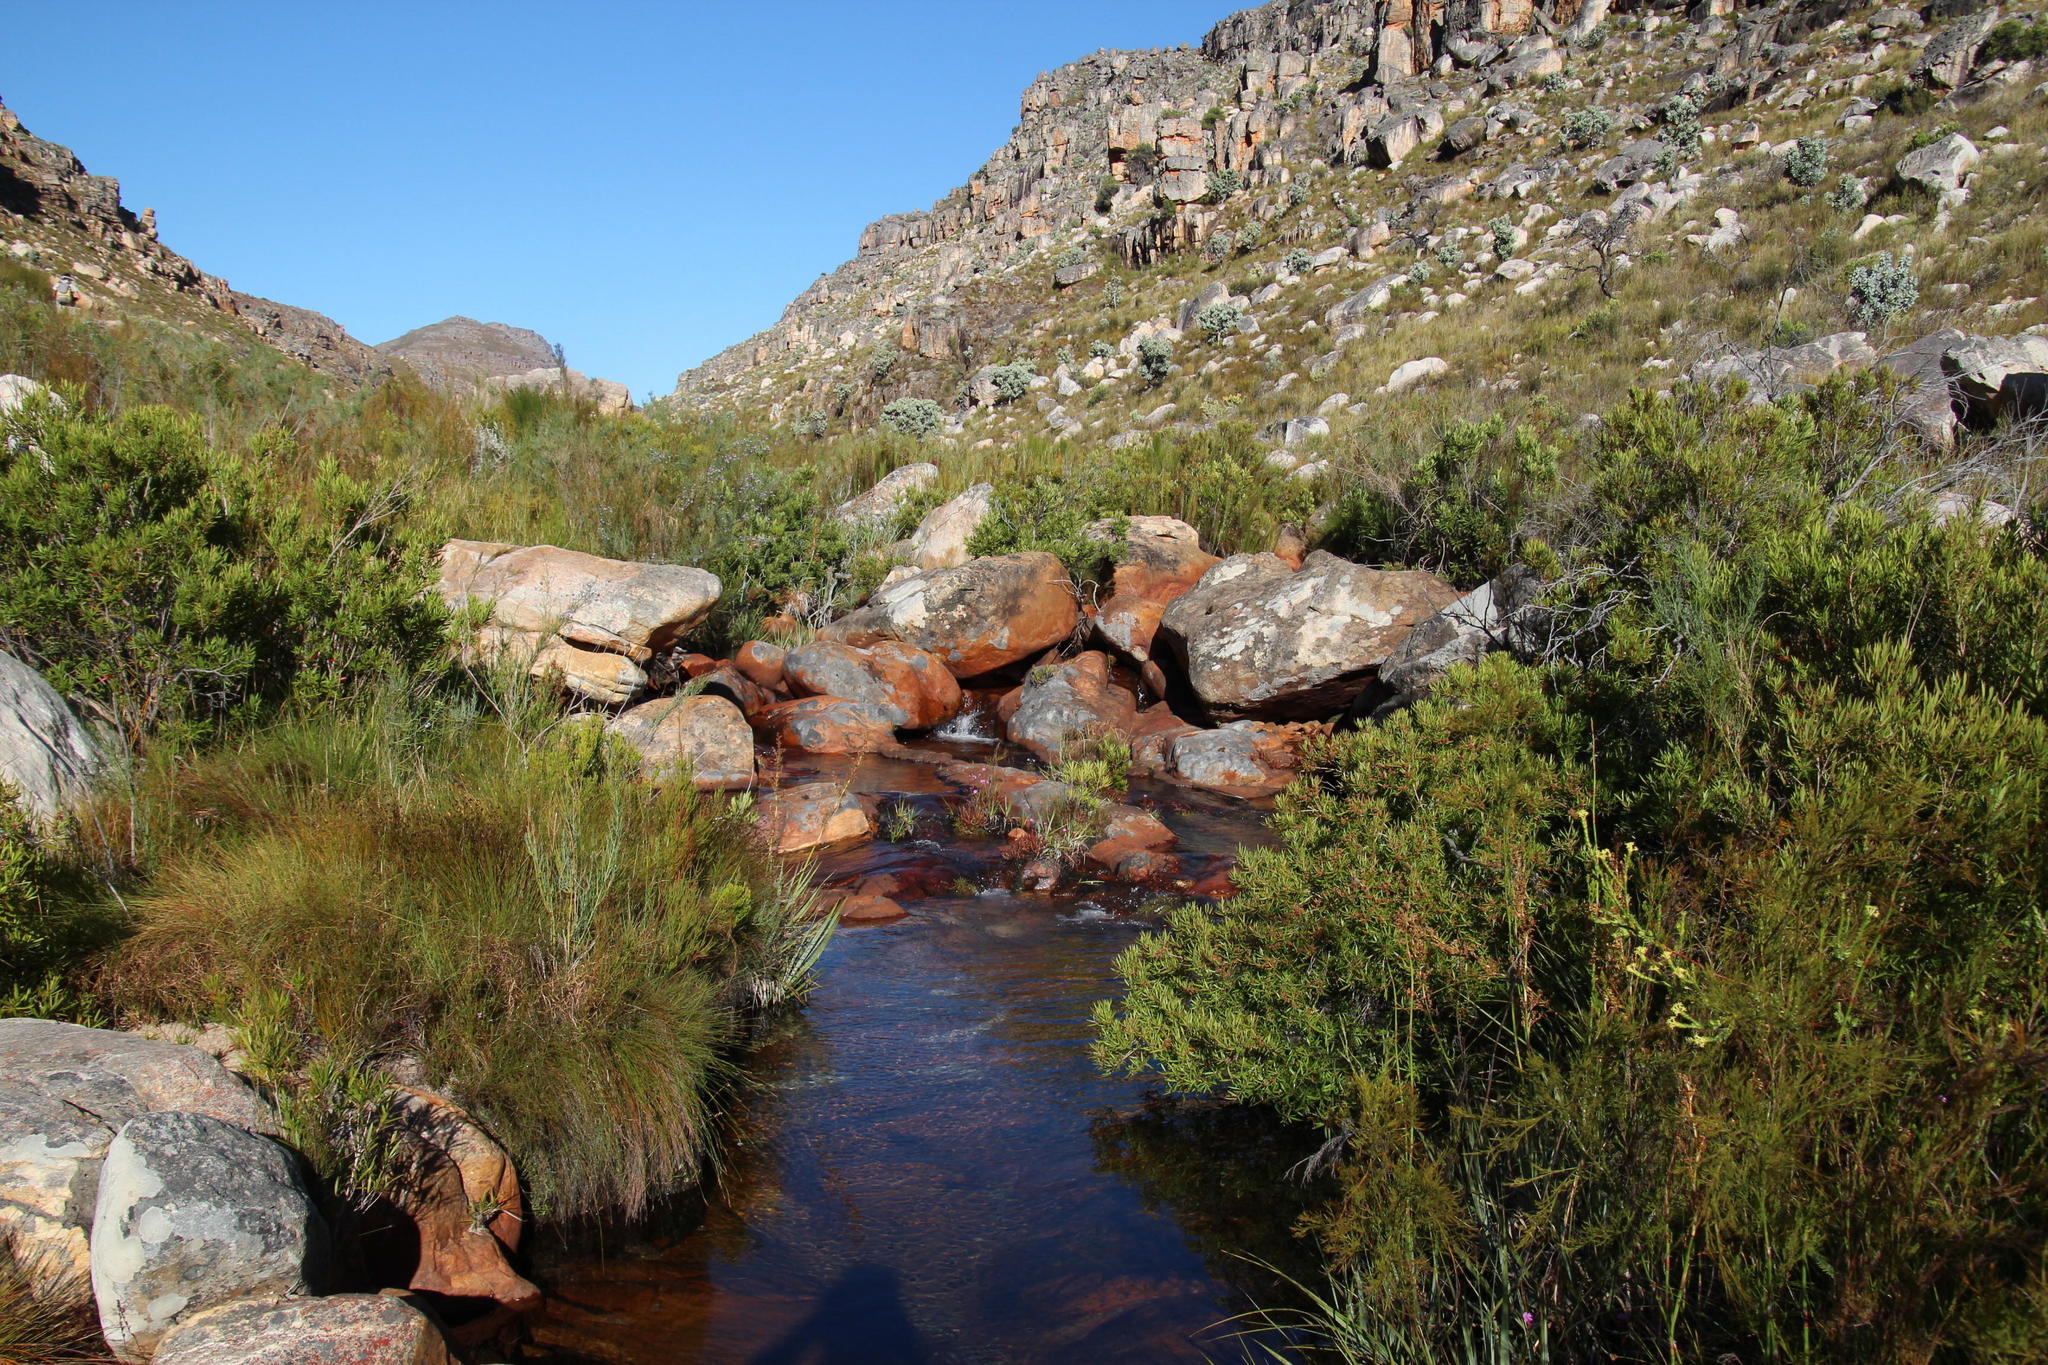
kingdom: Plantae
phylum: Tracheophyta
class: Magnoliopsida
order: Caryophyllales
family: Droseraceae
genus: Drosera
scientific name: Drosera capensis
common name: Cape sundew
